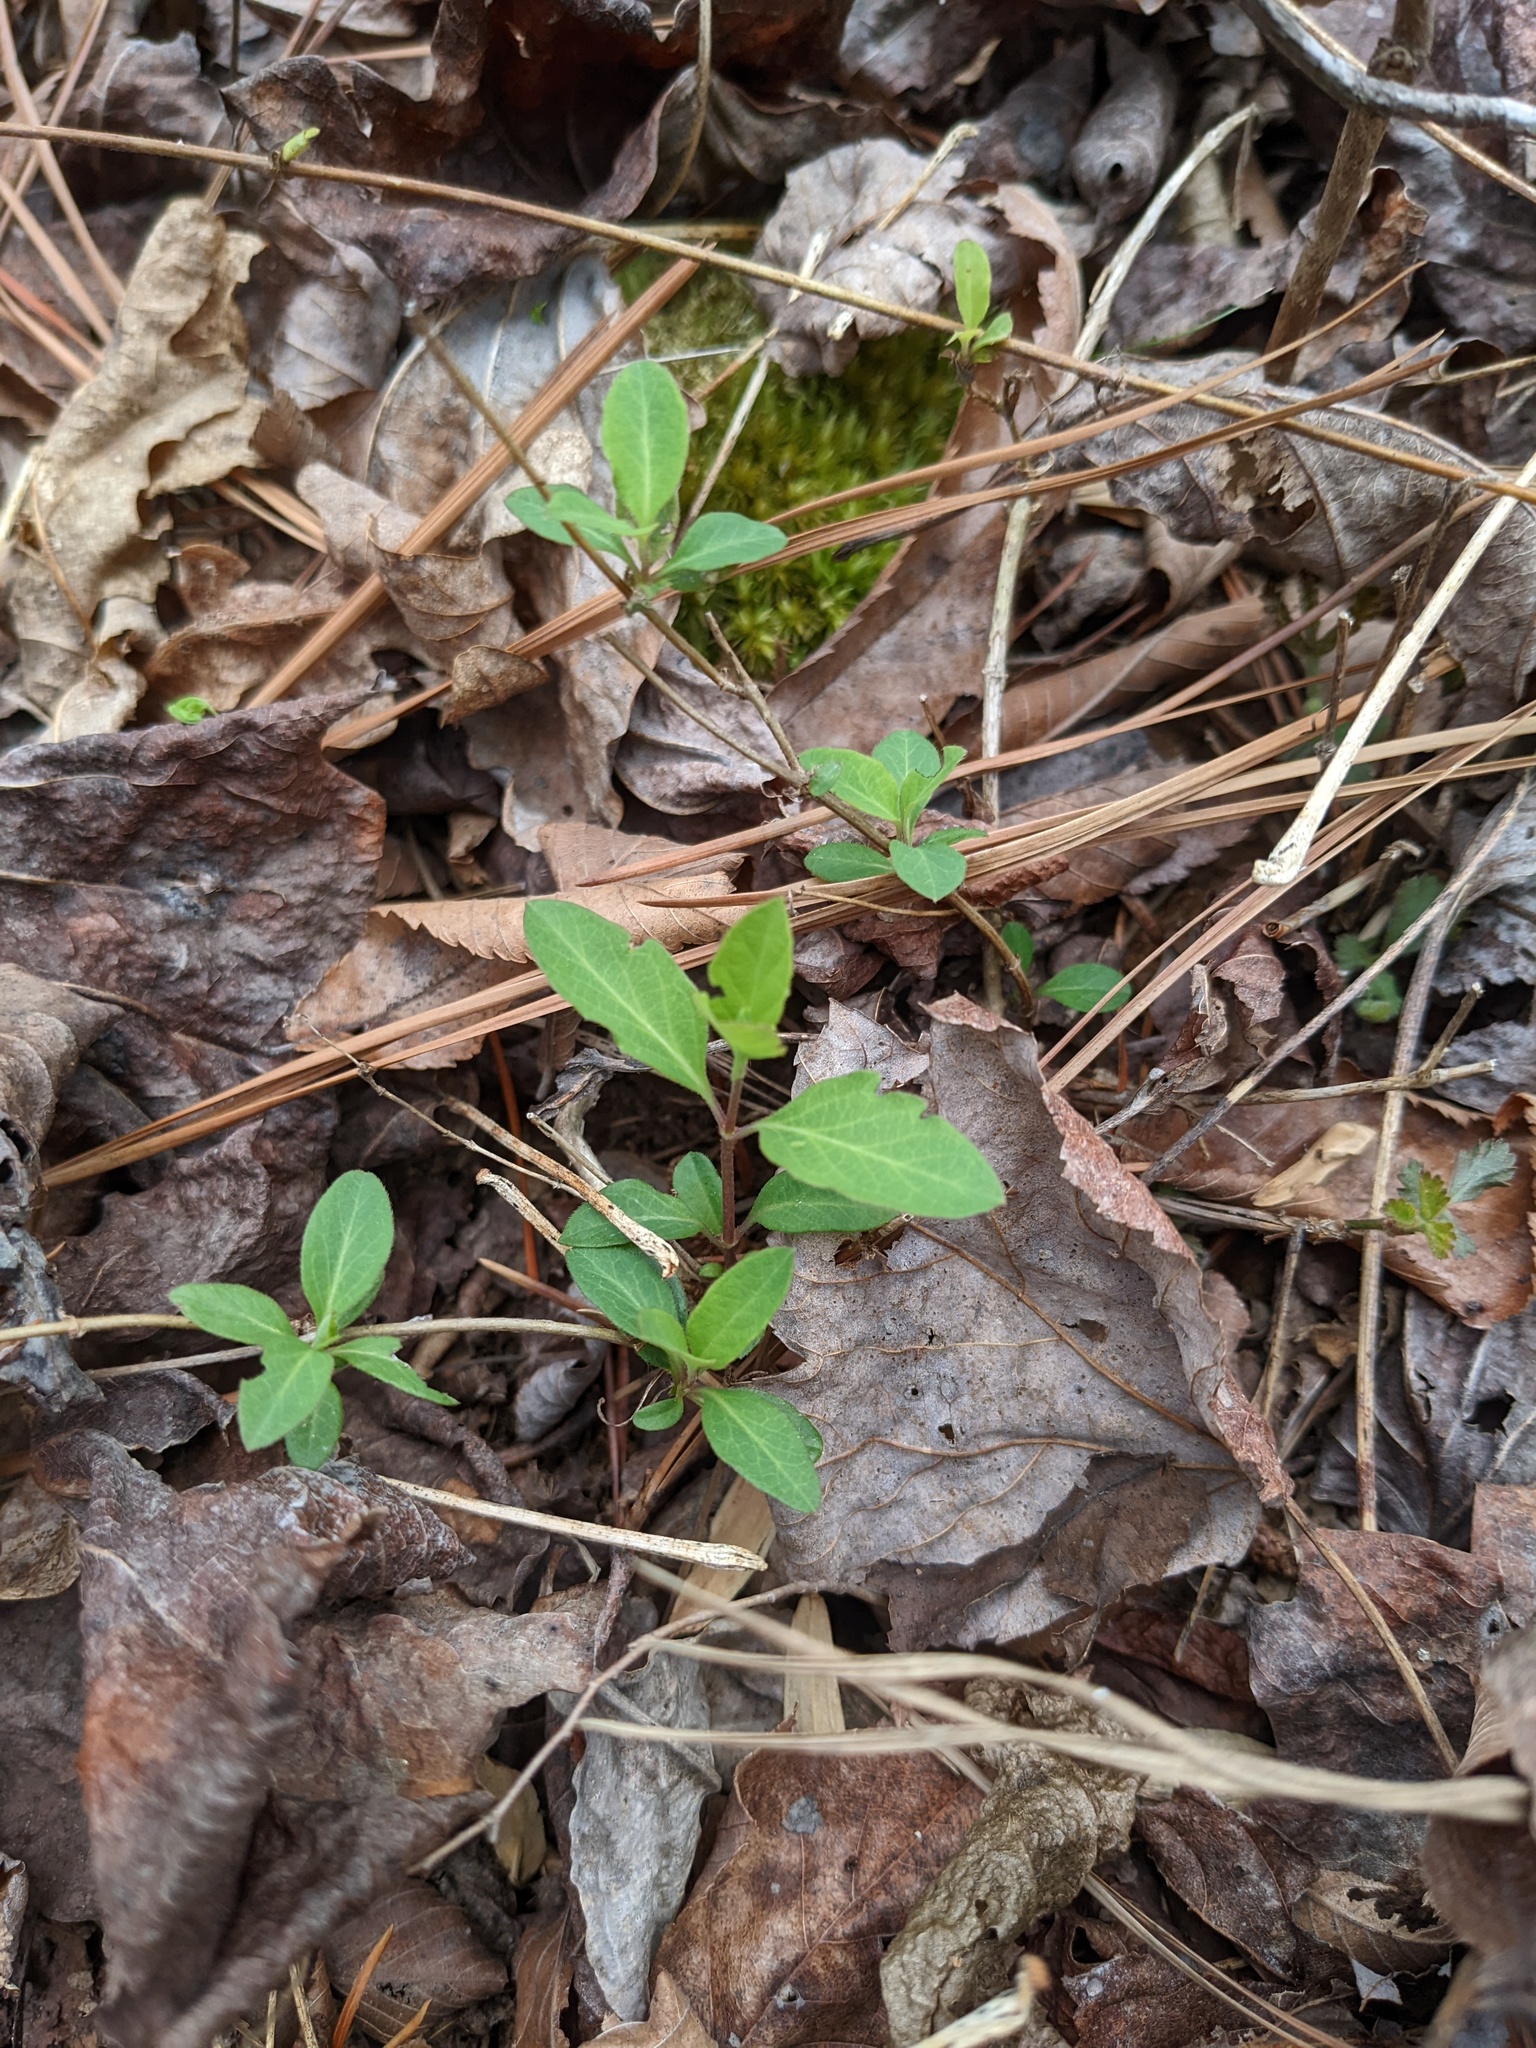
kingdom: Plantae
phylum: Tracheophyta
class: Magnoliopsida
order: Dipsacales
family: Caprifoliaceae
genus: Lonicera
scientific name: Lonicera japonica
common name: Japanese honeysuckle
